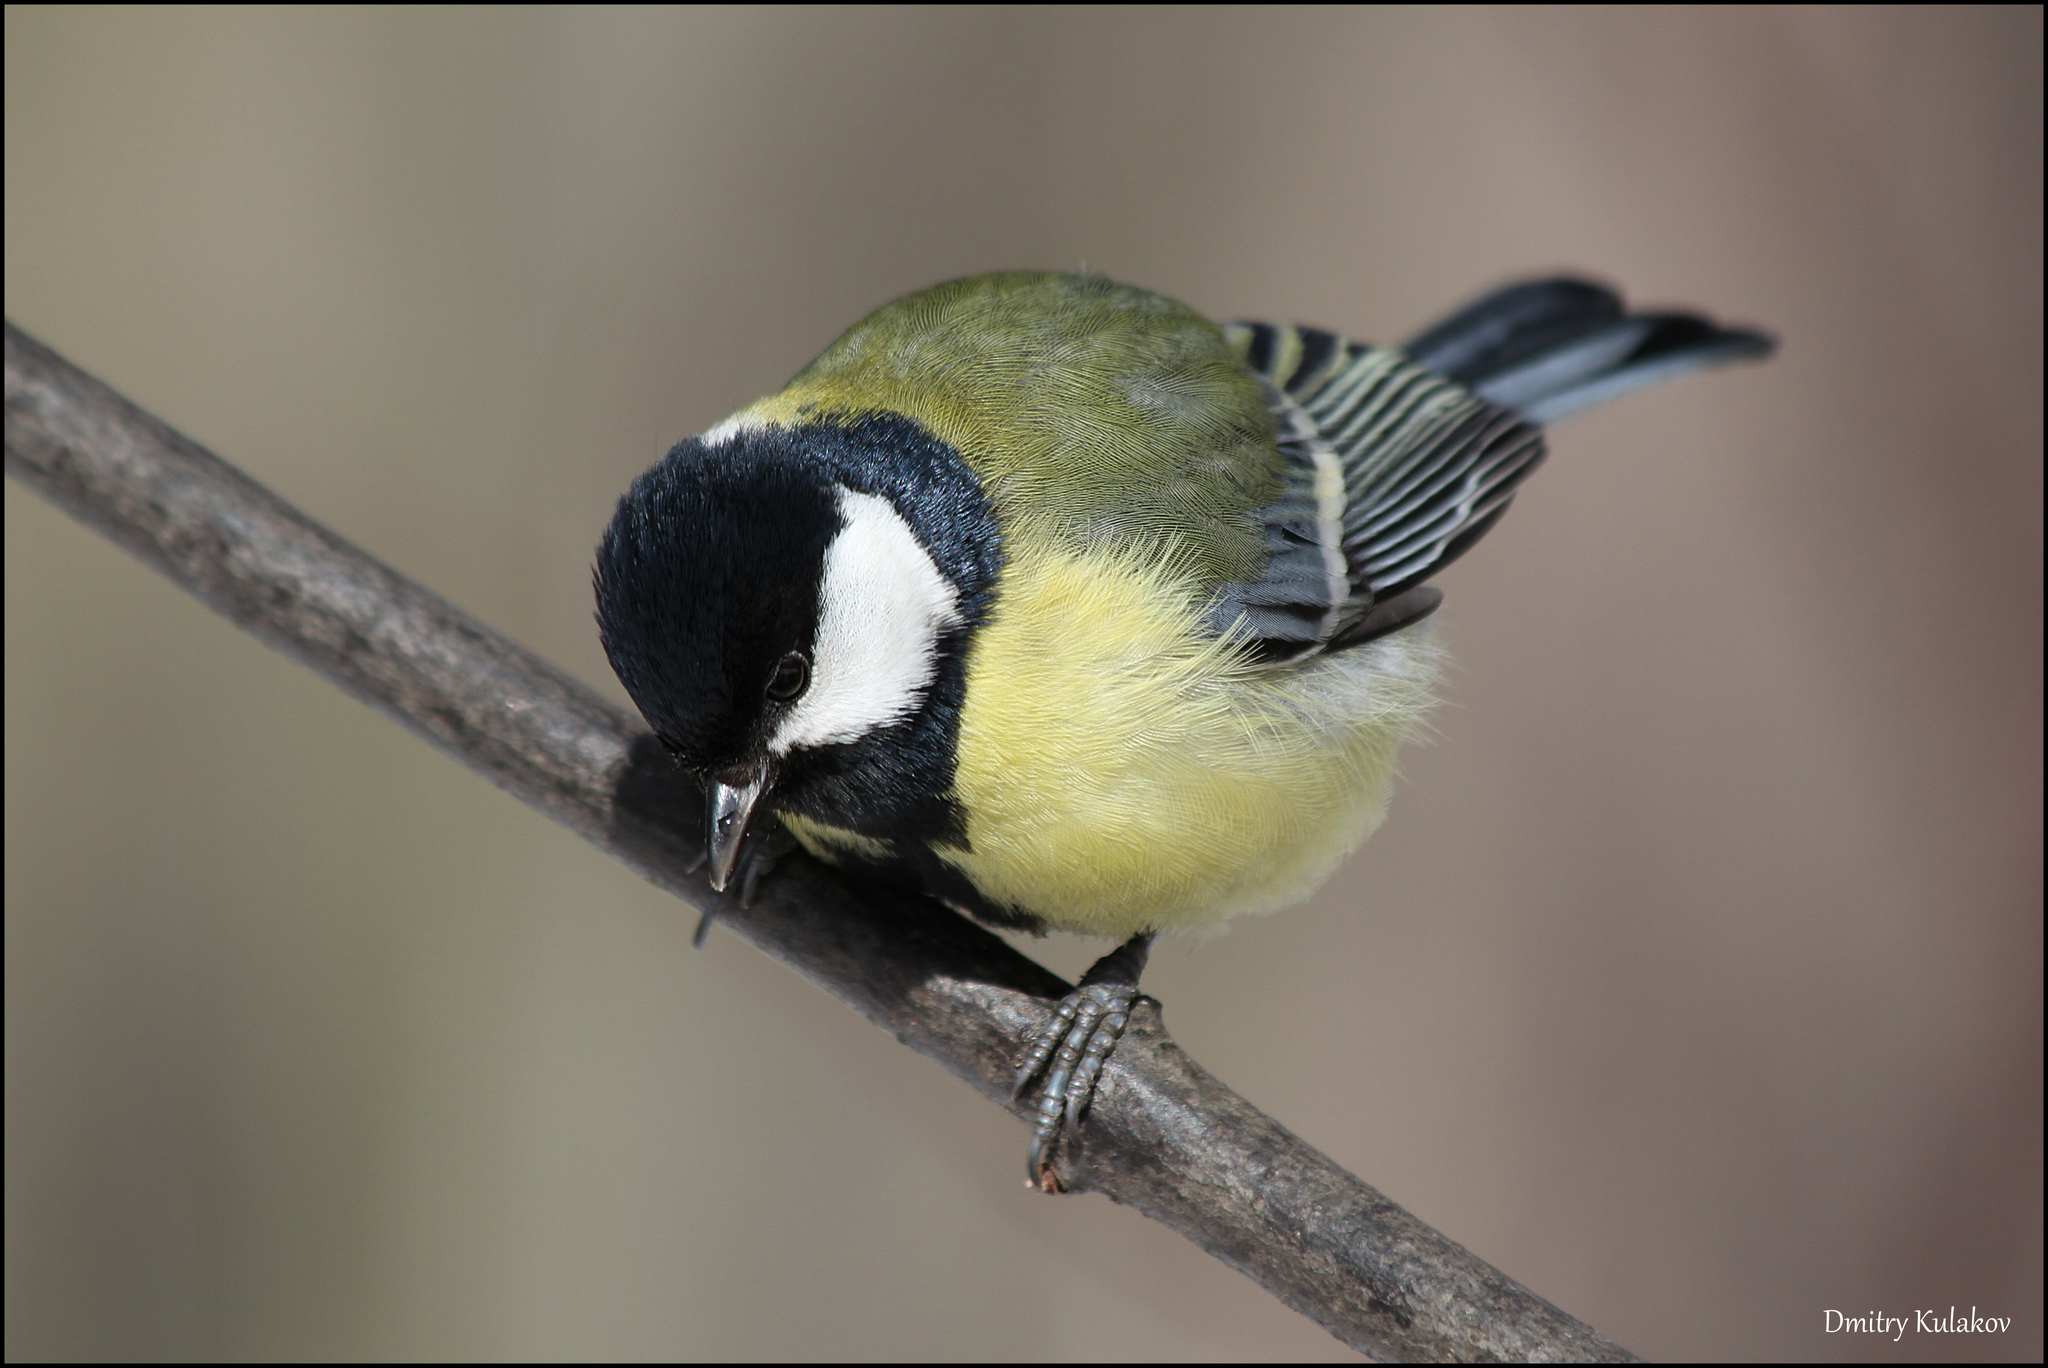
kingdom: Animalia
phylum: Chordata
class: Aves
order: Passeriformes
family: Paridae
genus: Parus
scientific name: Parus major
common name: Great tit
